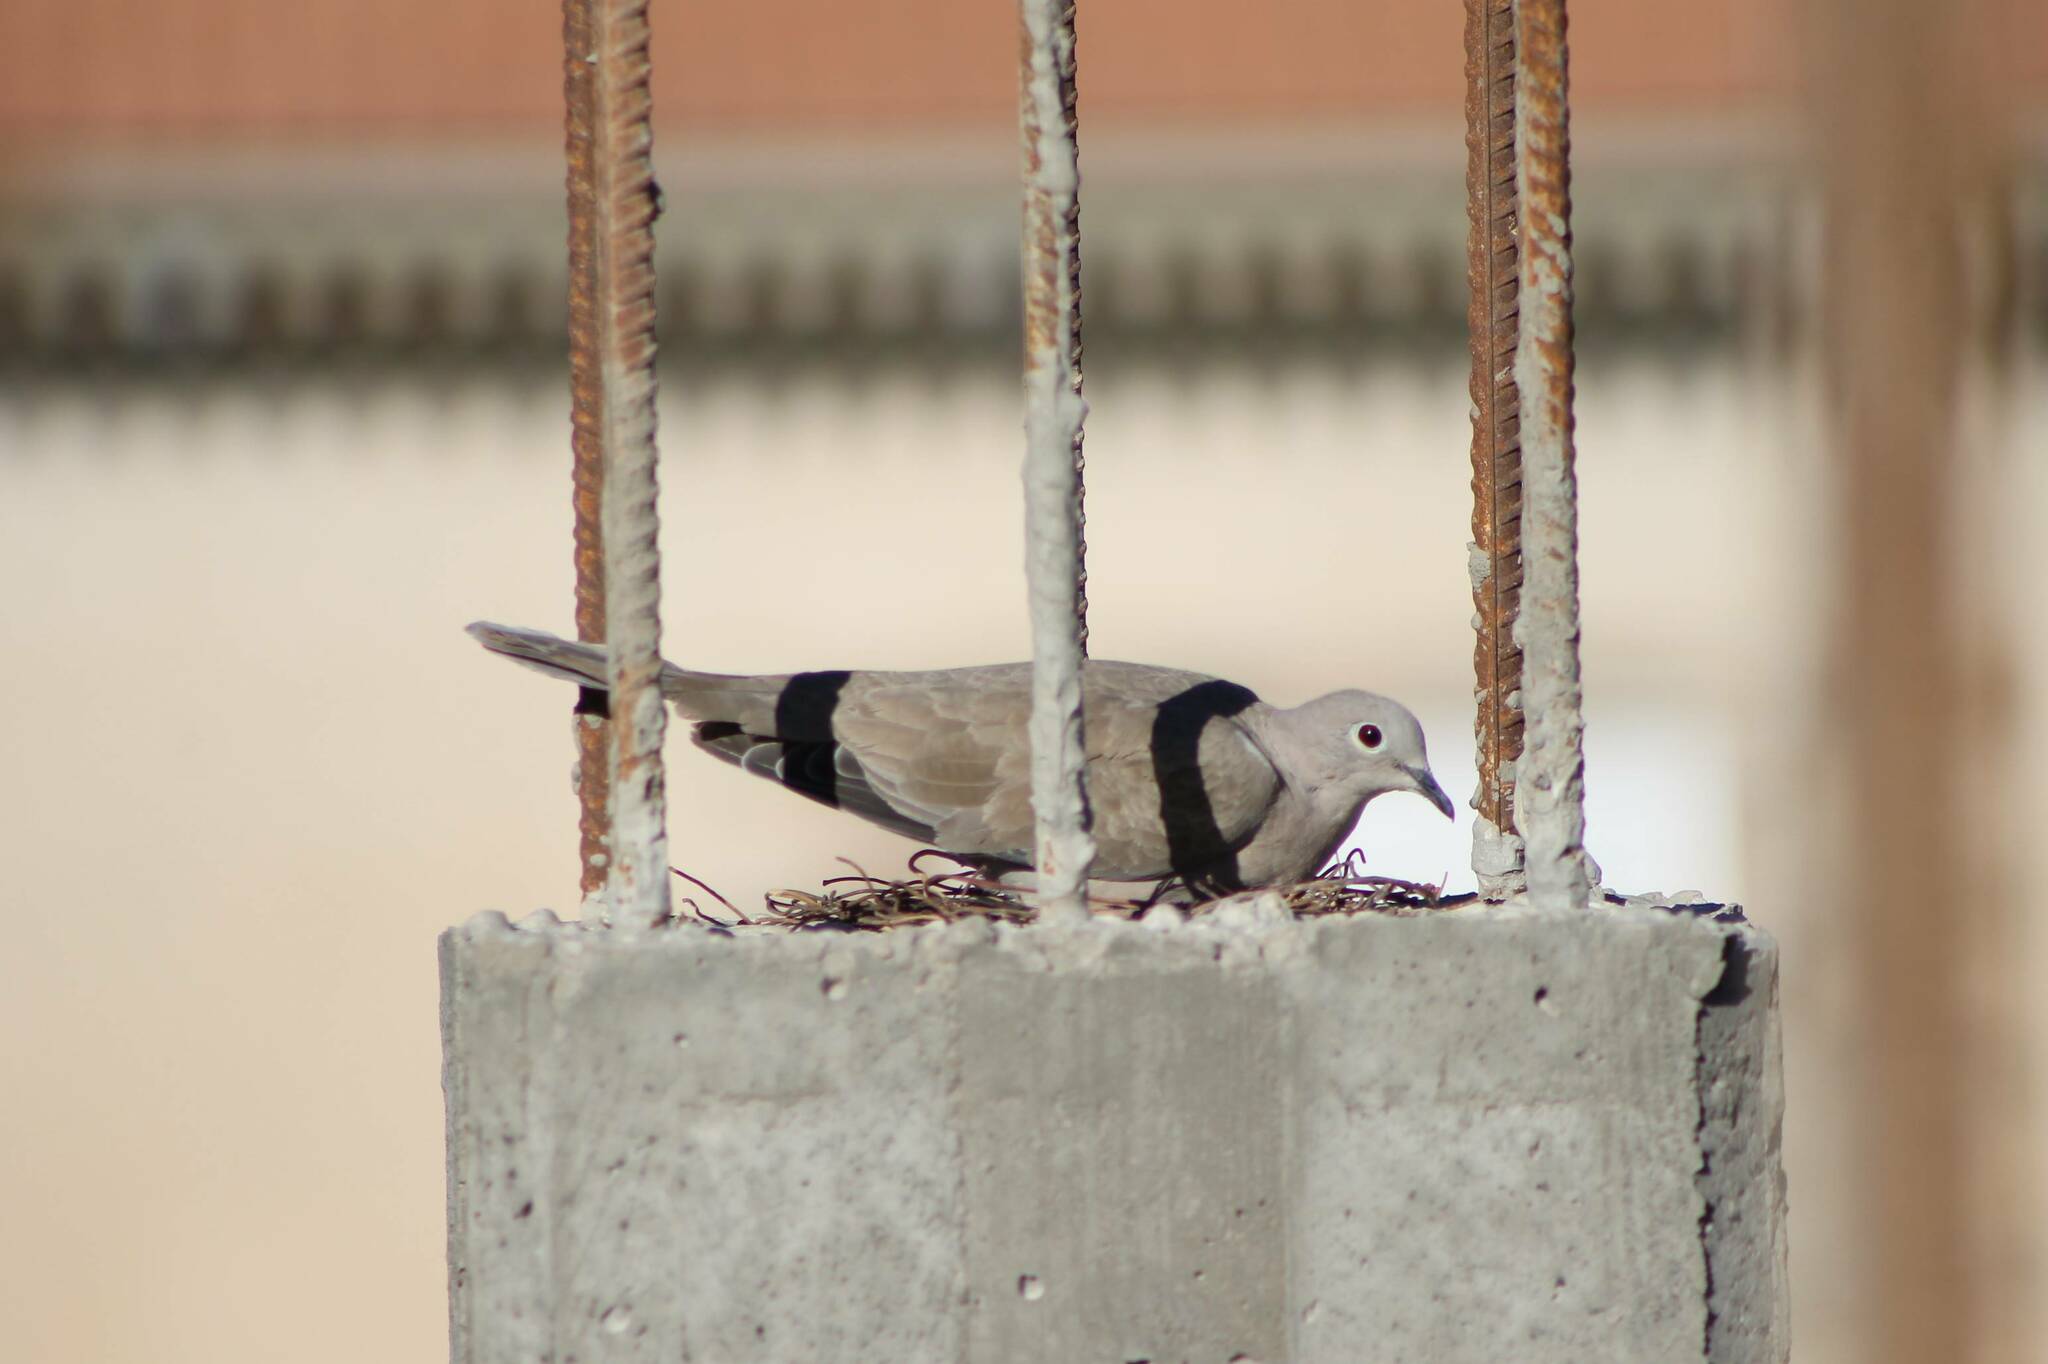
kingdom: Animalia
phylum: Chordata
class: Aves
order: Columbiformes
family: Columbidae
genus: Streptopelia
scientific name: Streptopelia decaocto
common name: Eurasian collared dove
